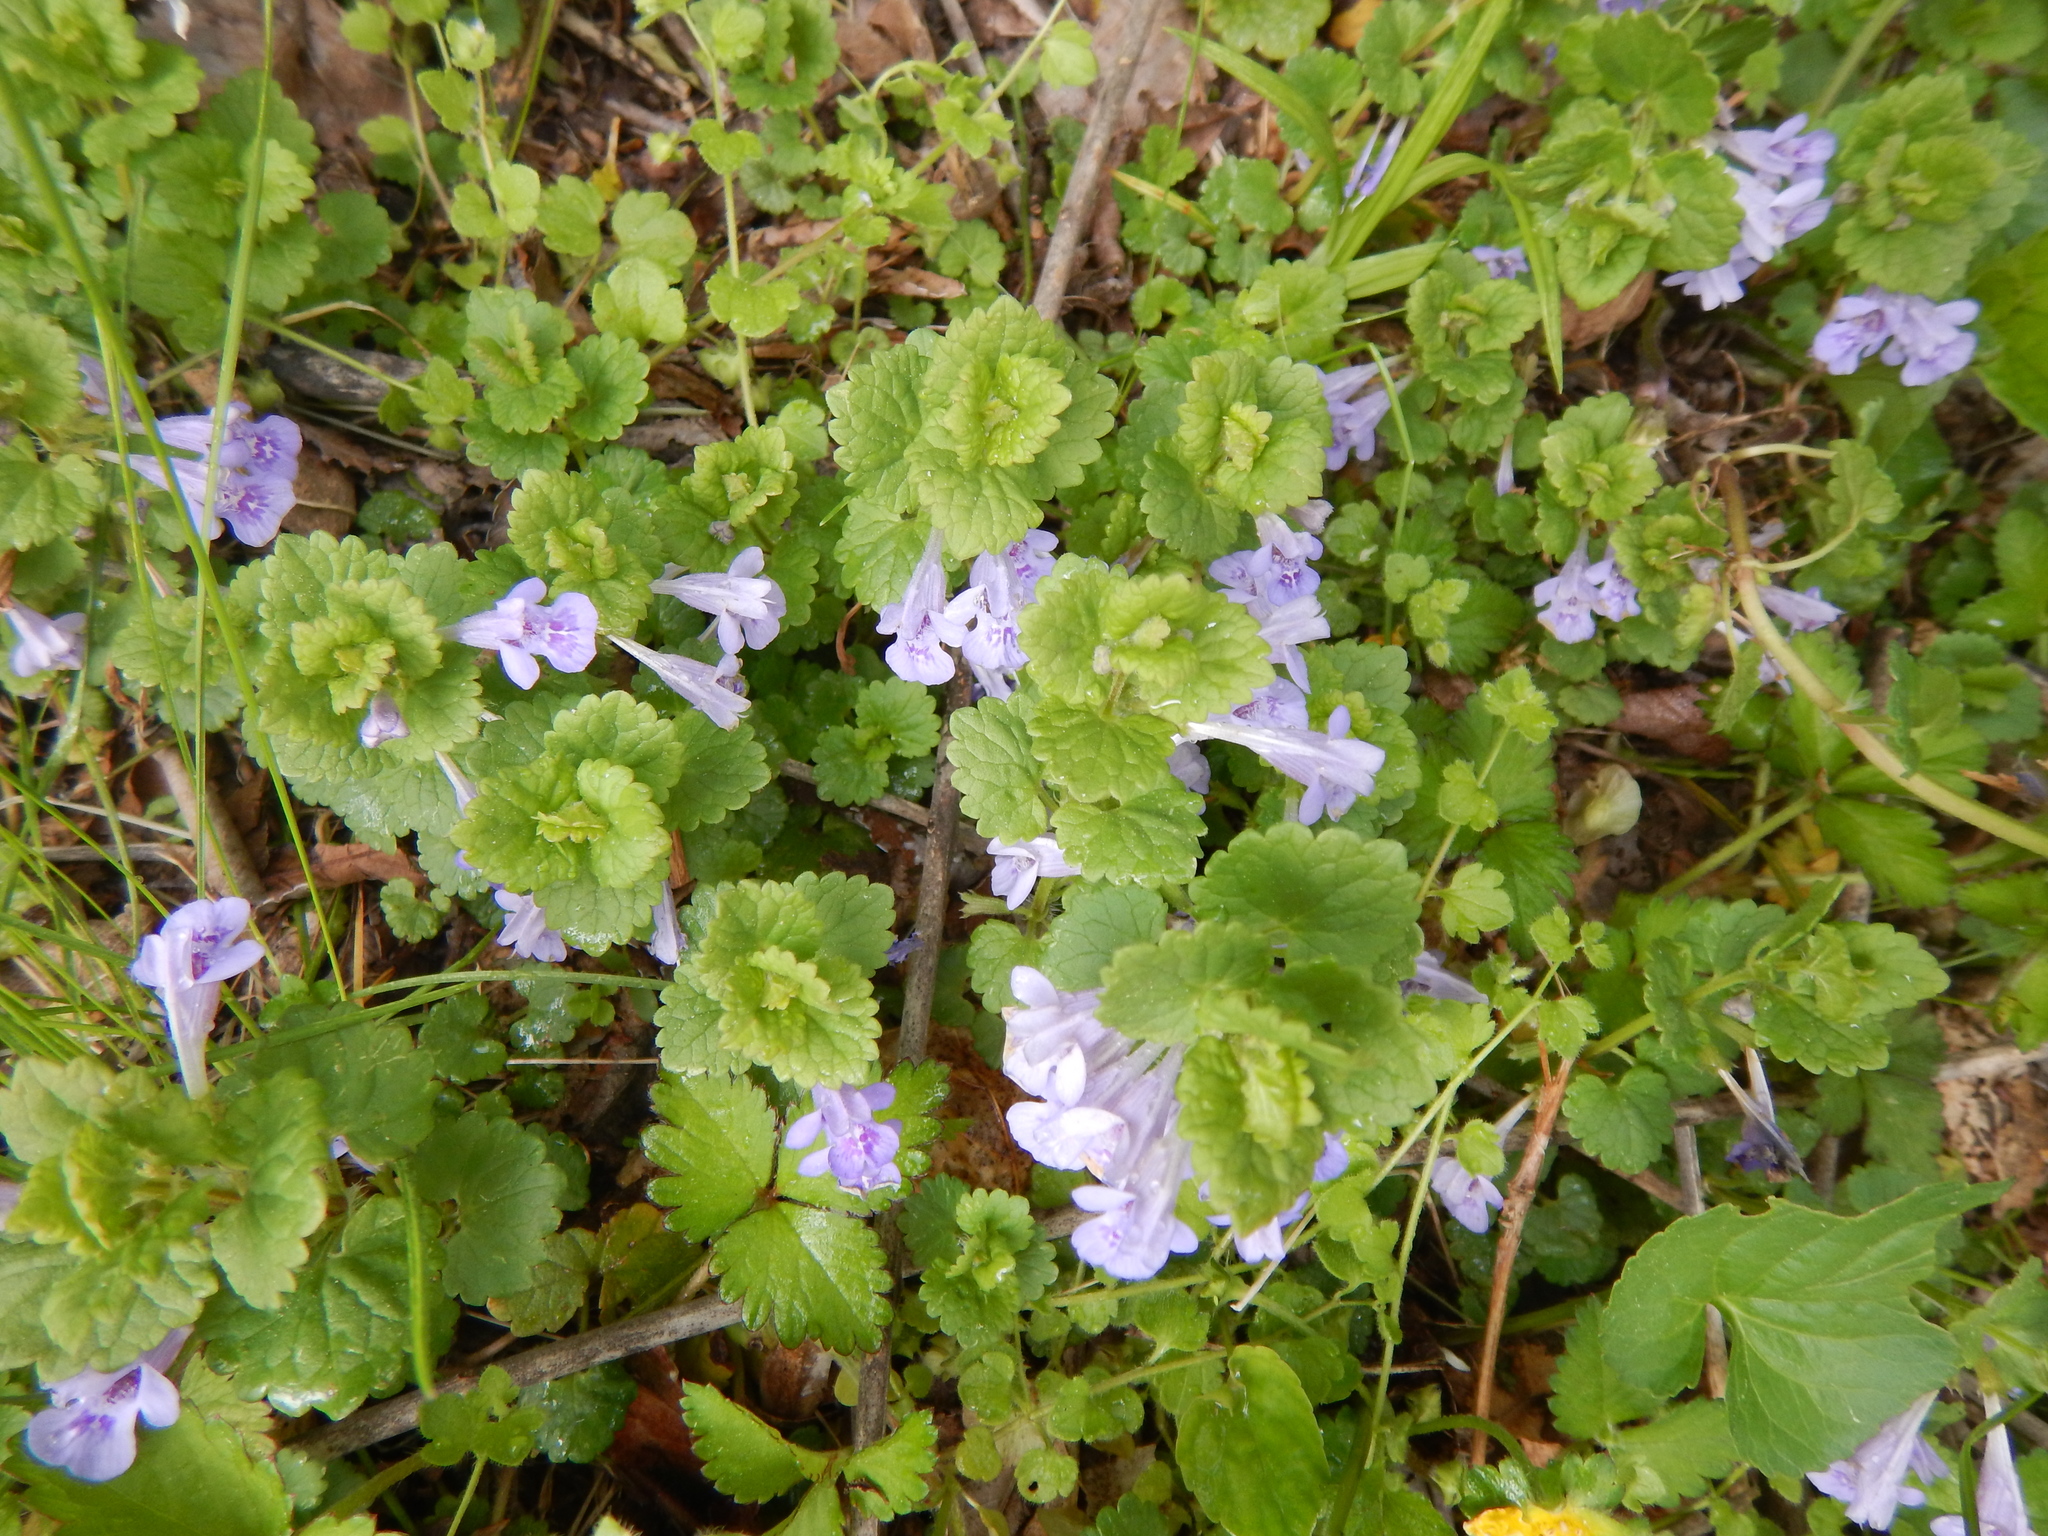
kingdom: Plantae
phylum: Tracheophyta
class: Magnoliopsida
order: Lamiales
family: Lamiaceae
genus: Glechoma
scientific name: Glechoma hederacea
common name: Ground ivy
